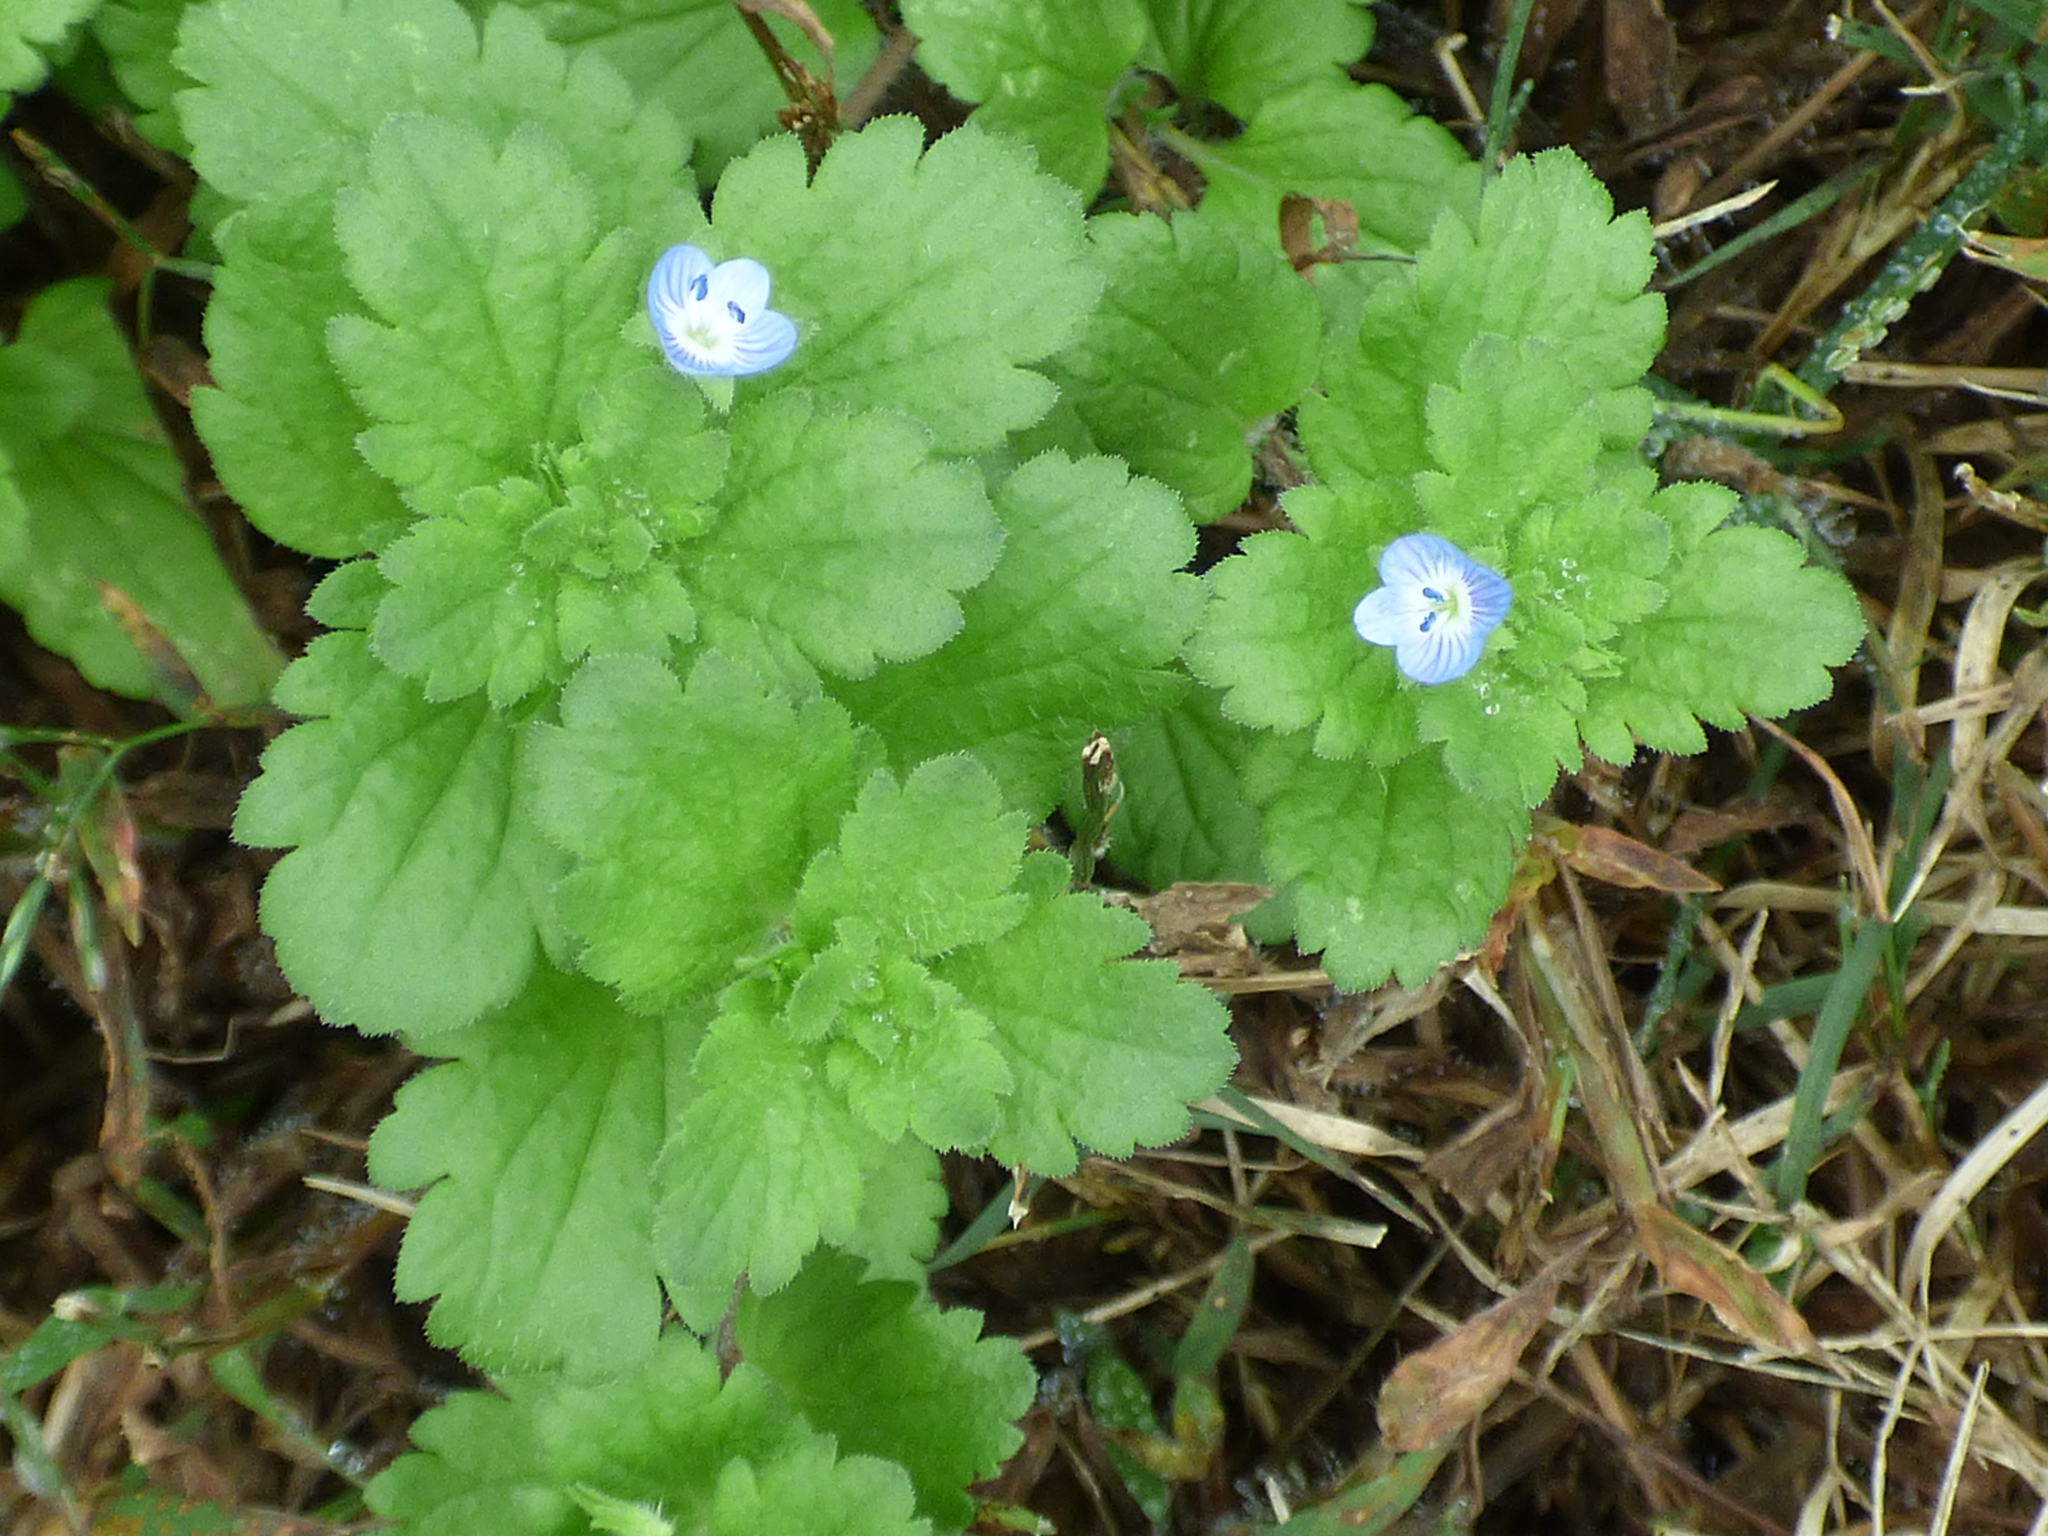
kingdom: Plantae
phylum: Tracheophyta
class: Magnoliopsida
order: Lamiales
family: Plantaginaceae
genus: Veronica
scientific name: Veronica persica
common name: Common field-speedwell
